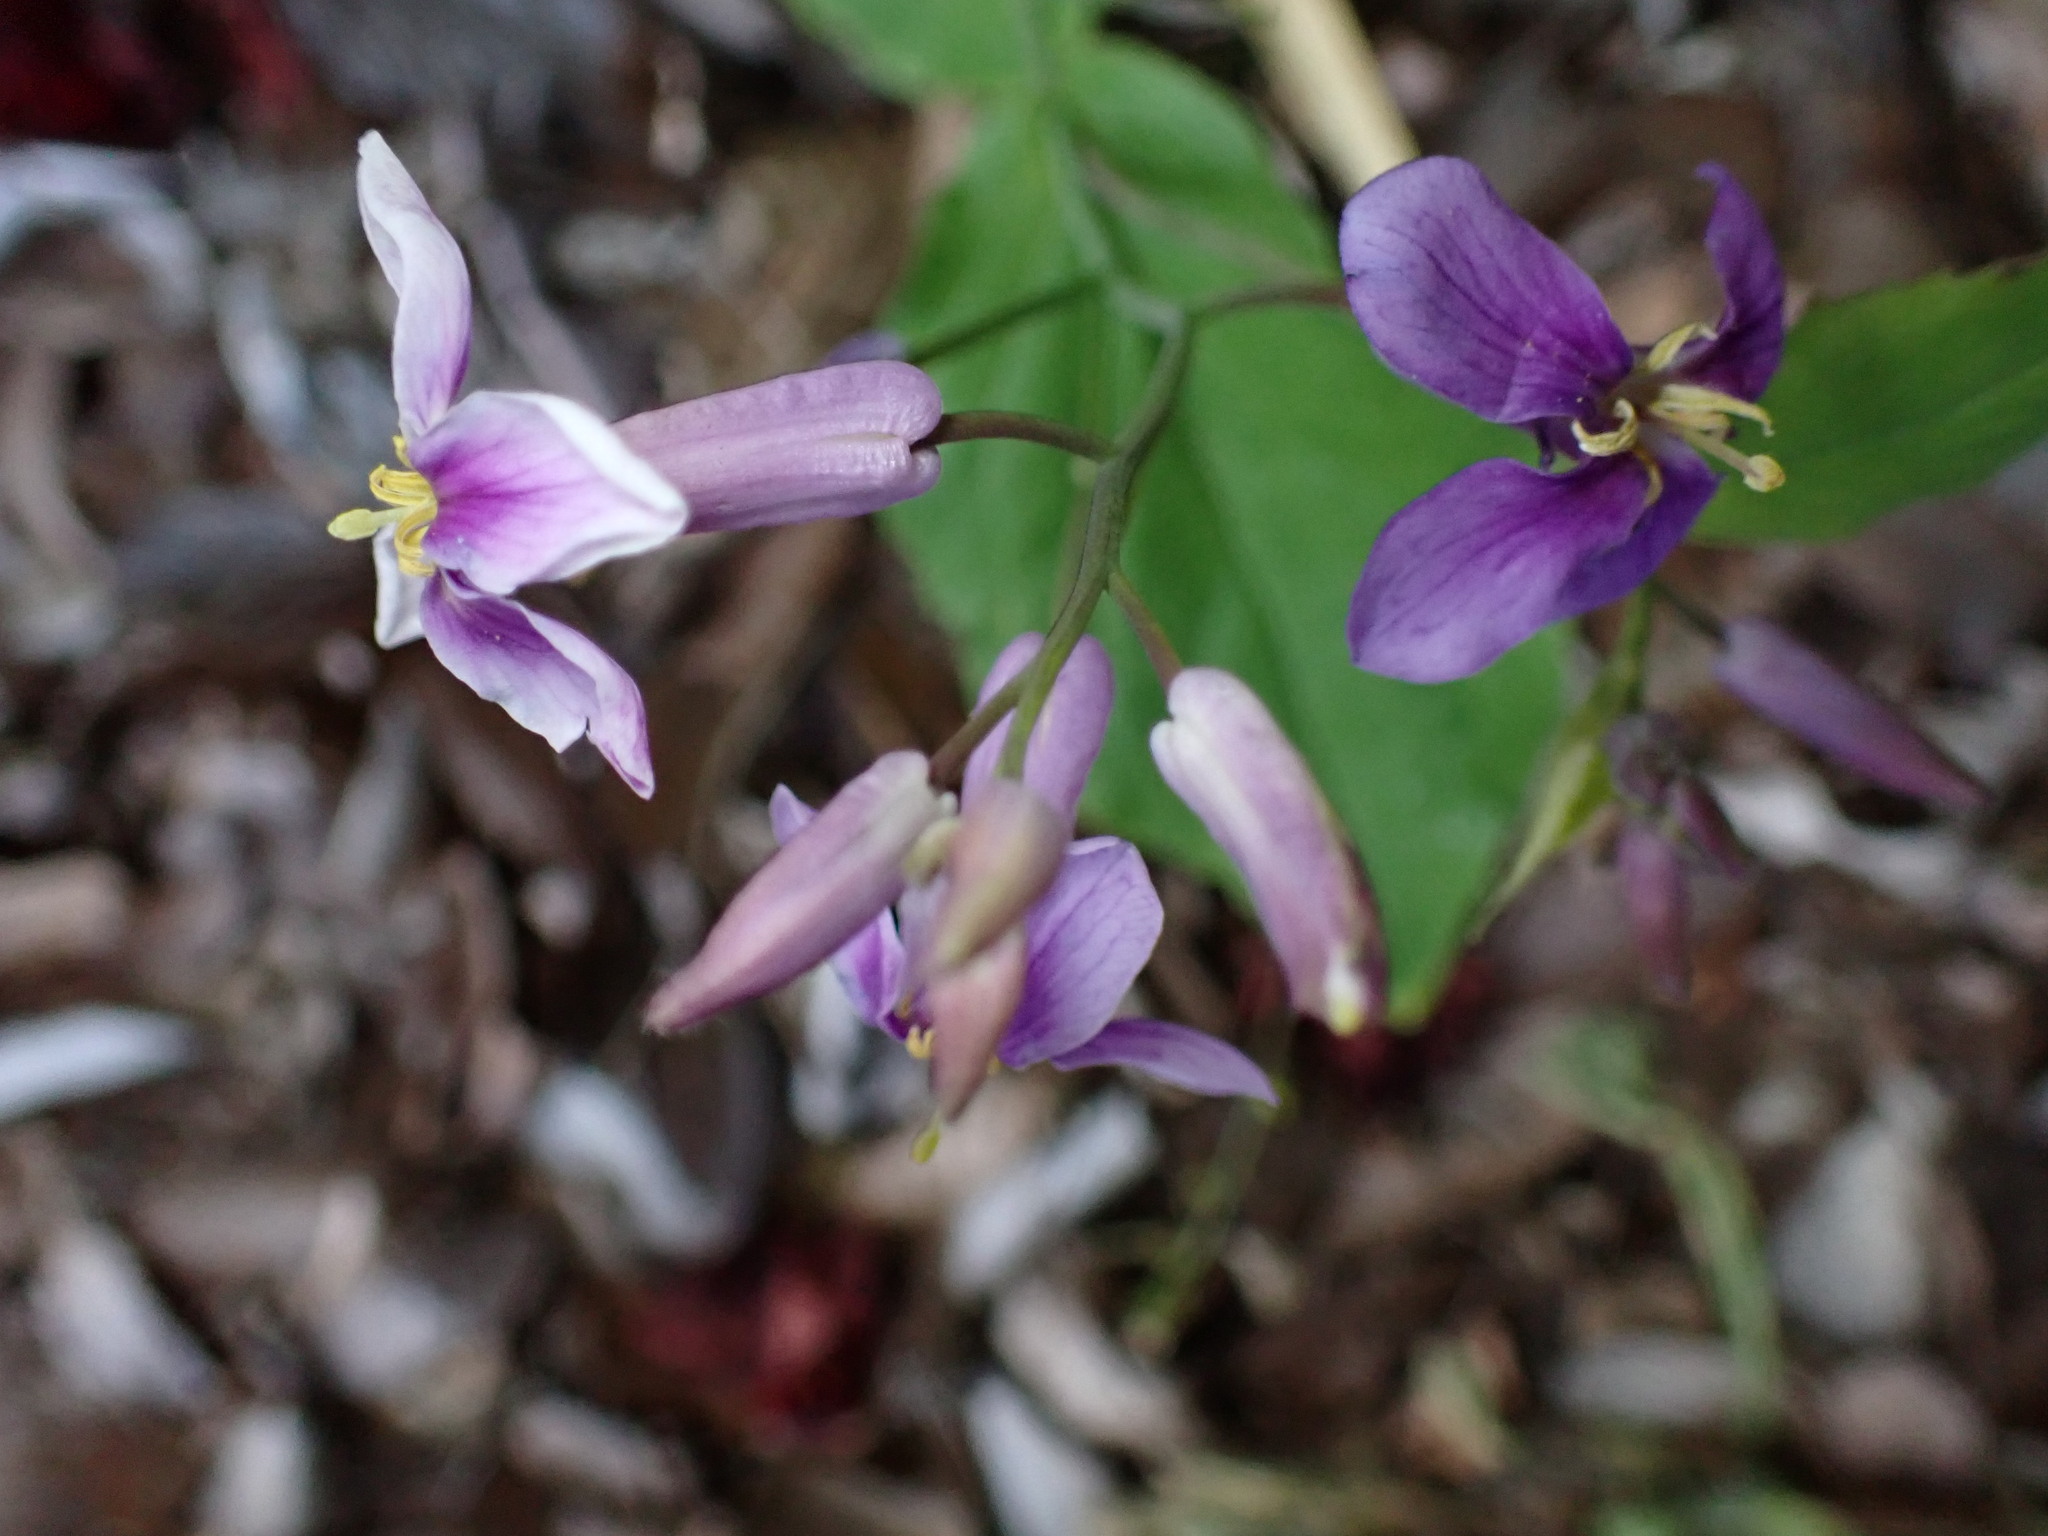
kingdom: Plantae
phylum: Tracheophyta
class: Magnoliopsida
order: Brassicales
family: Brassicaceae
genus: Orychophragmus
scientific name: Orychophragmus violaceus
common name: Mustard
